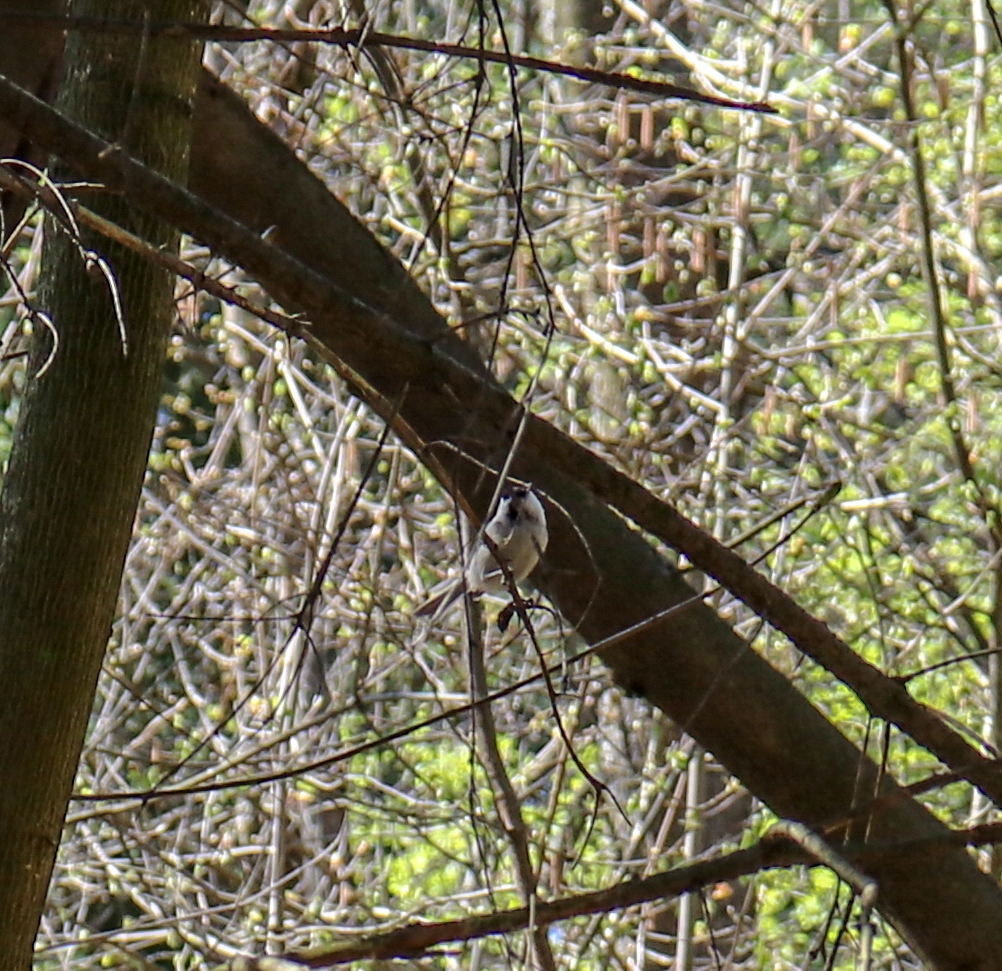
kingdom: Animalia
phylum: Chordata
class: Aves
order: Passeriformes
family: Paridae
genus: Poecile
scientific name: Poecile montanus
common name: Willow tit
